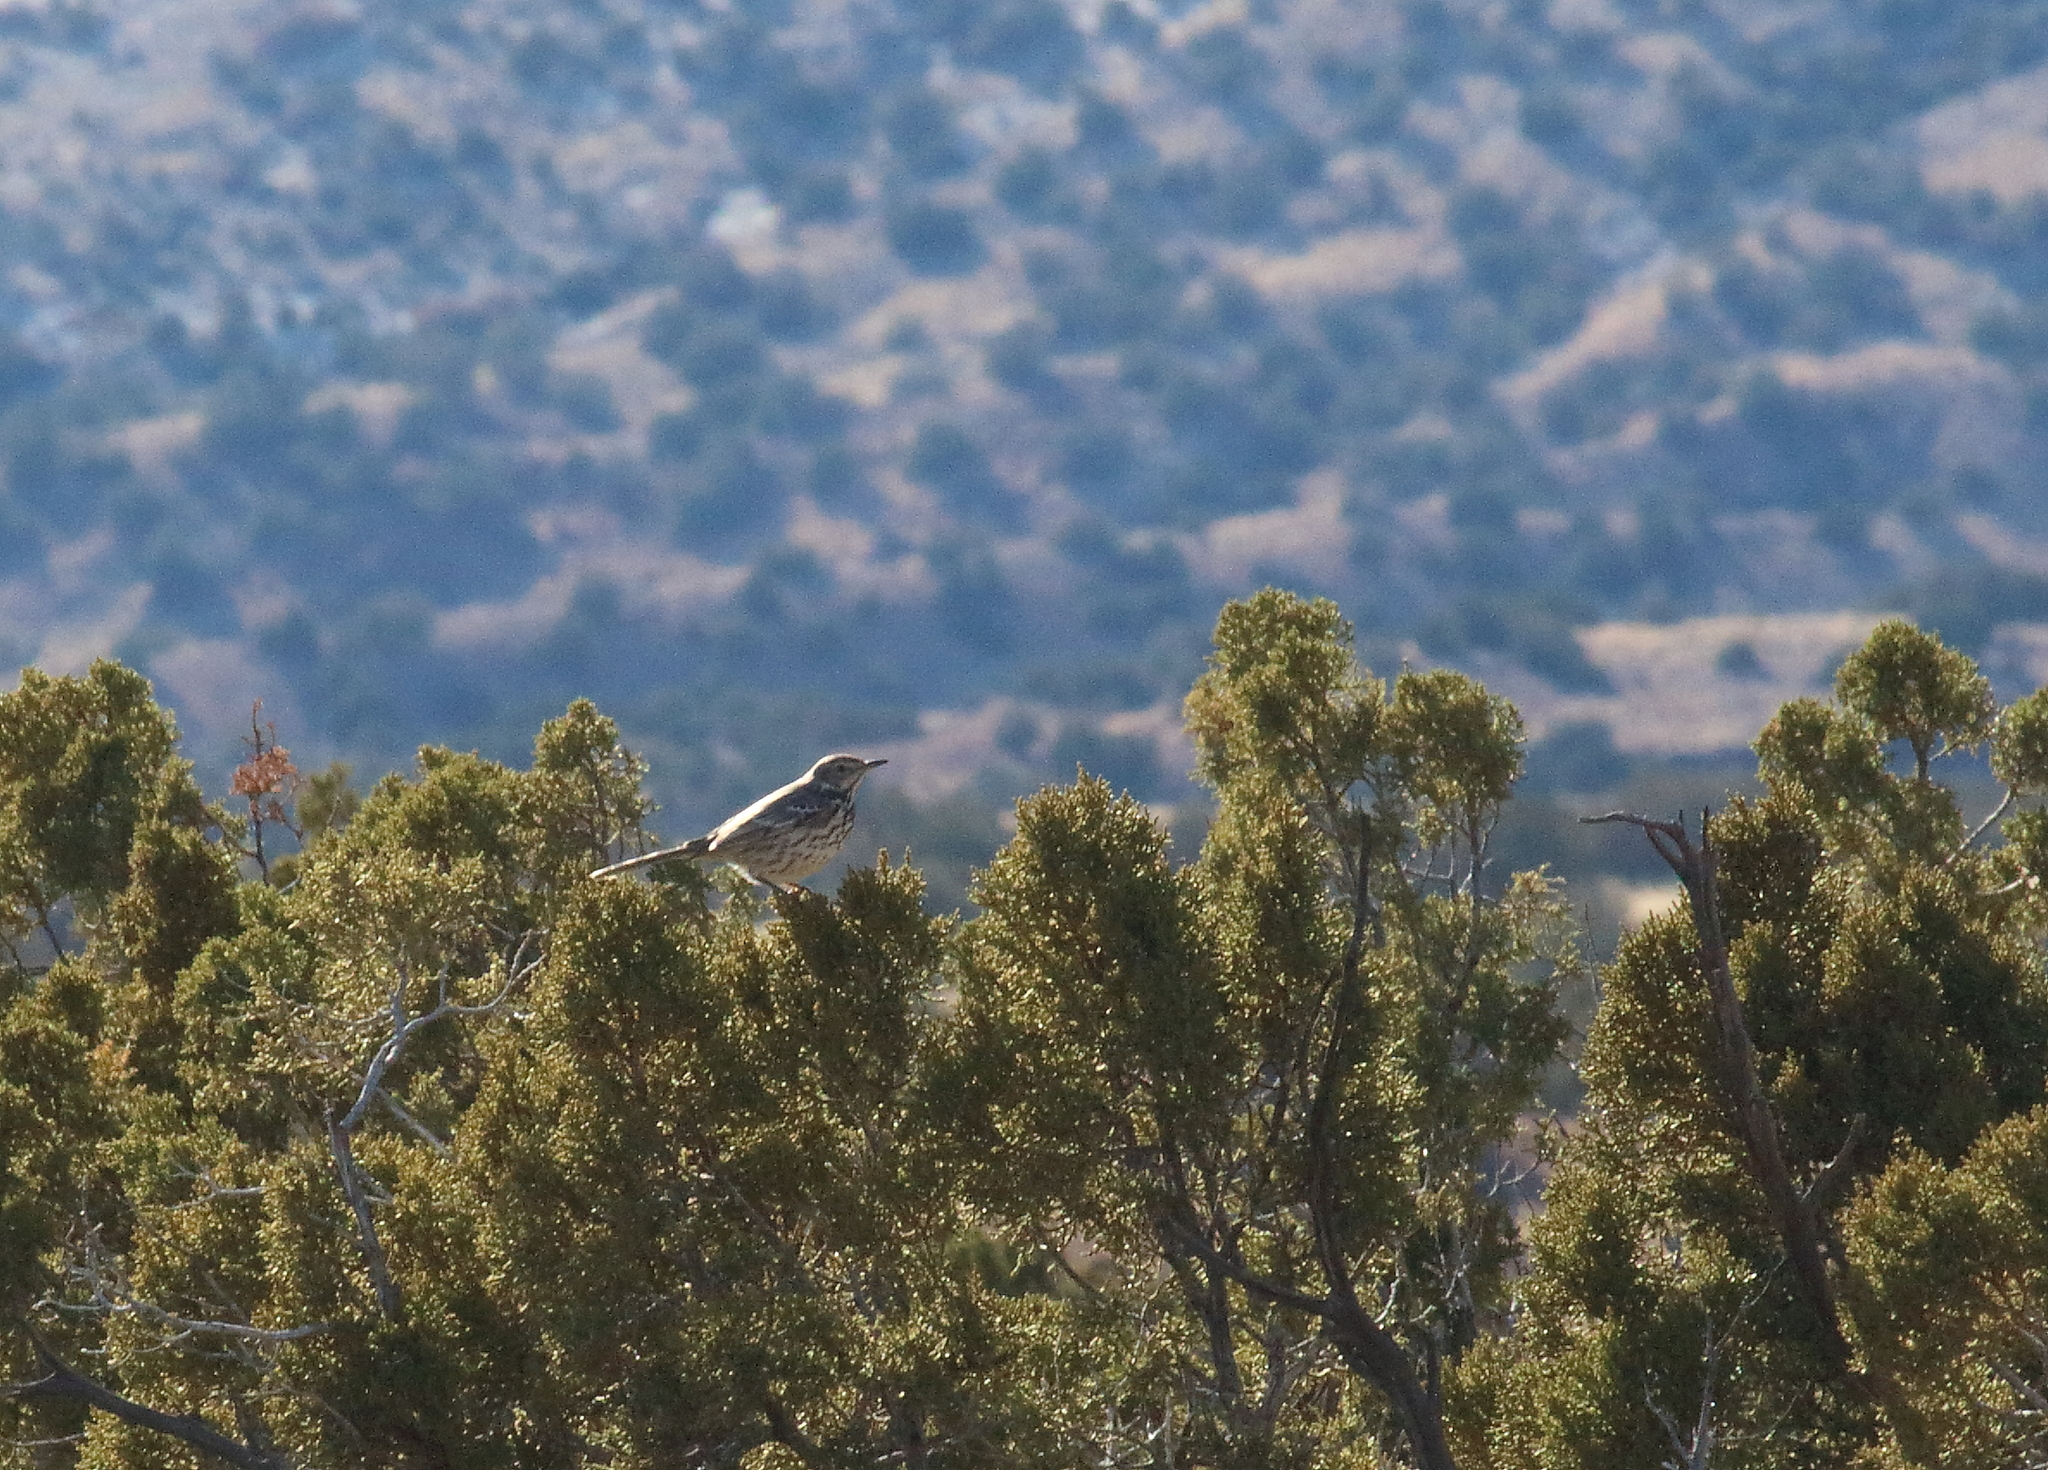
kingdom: Animalia
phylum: Chordata
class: Aves
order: Passeriformes
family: Mimidae
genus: Oreoscoptes
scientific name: Oreoscoptes montanus
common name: Sage thrasher
